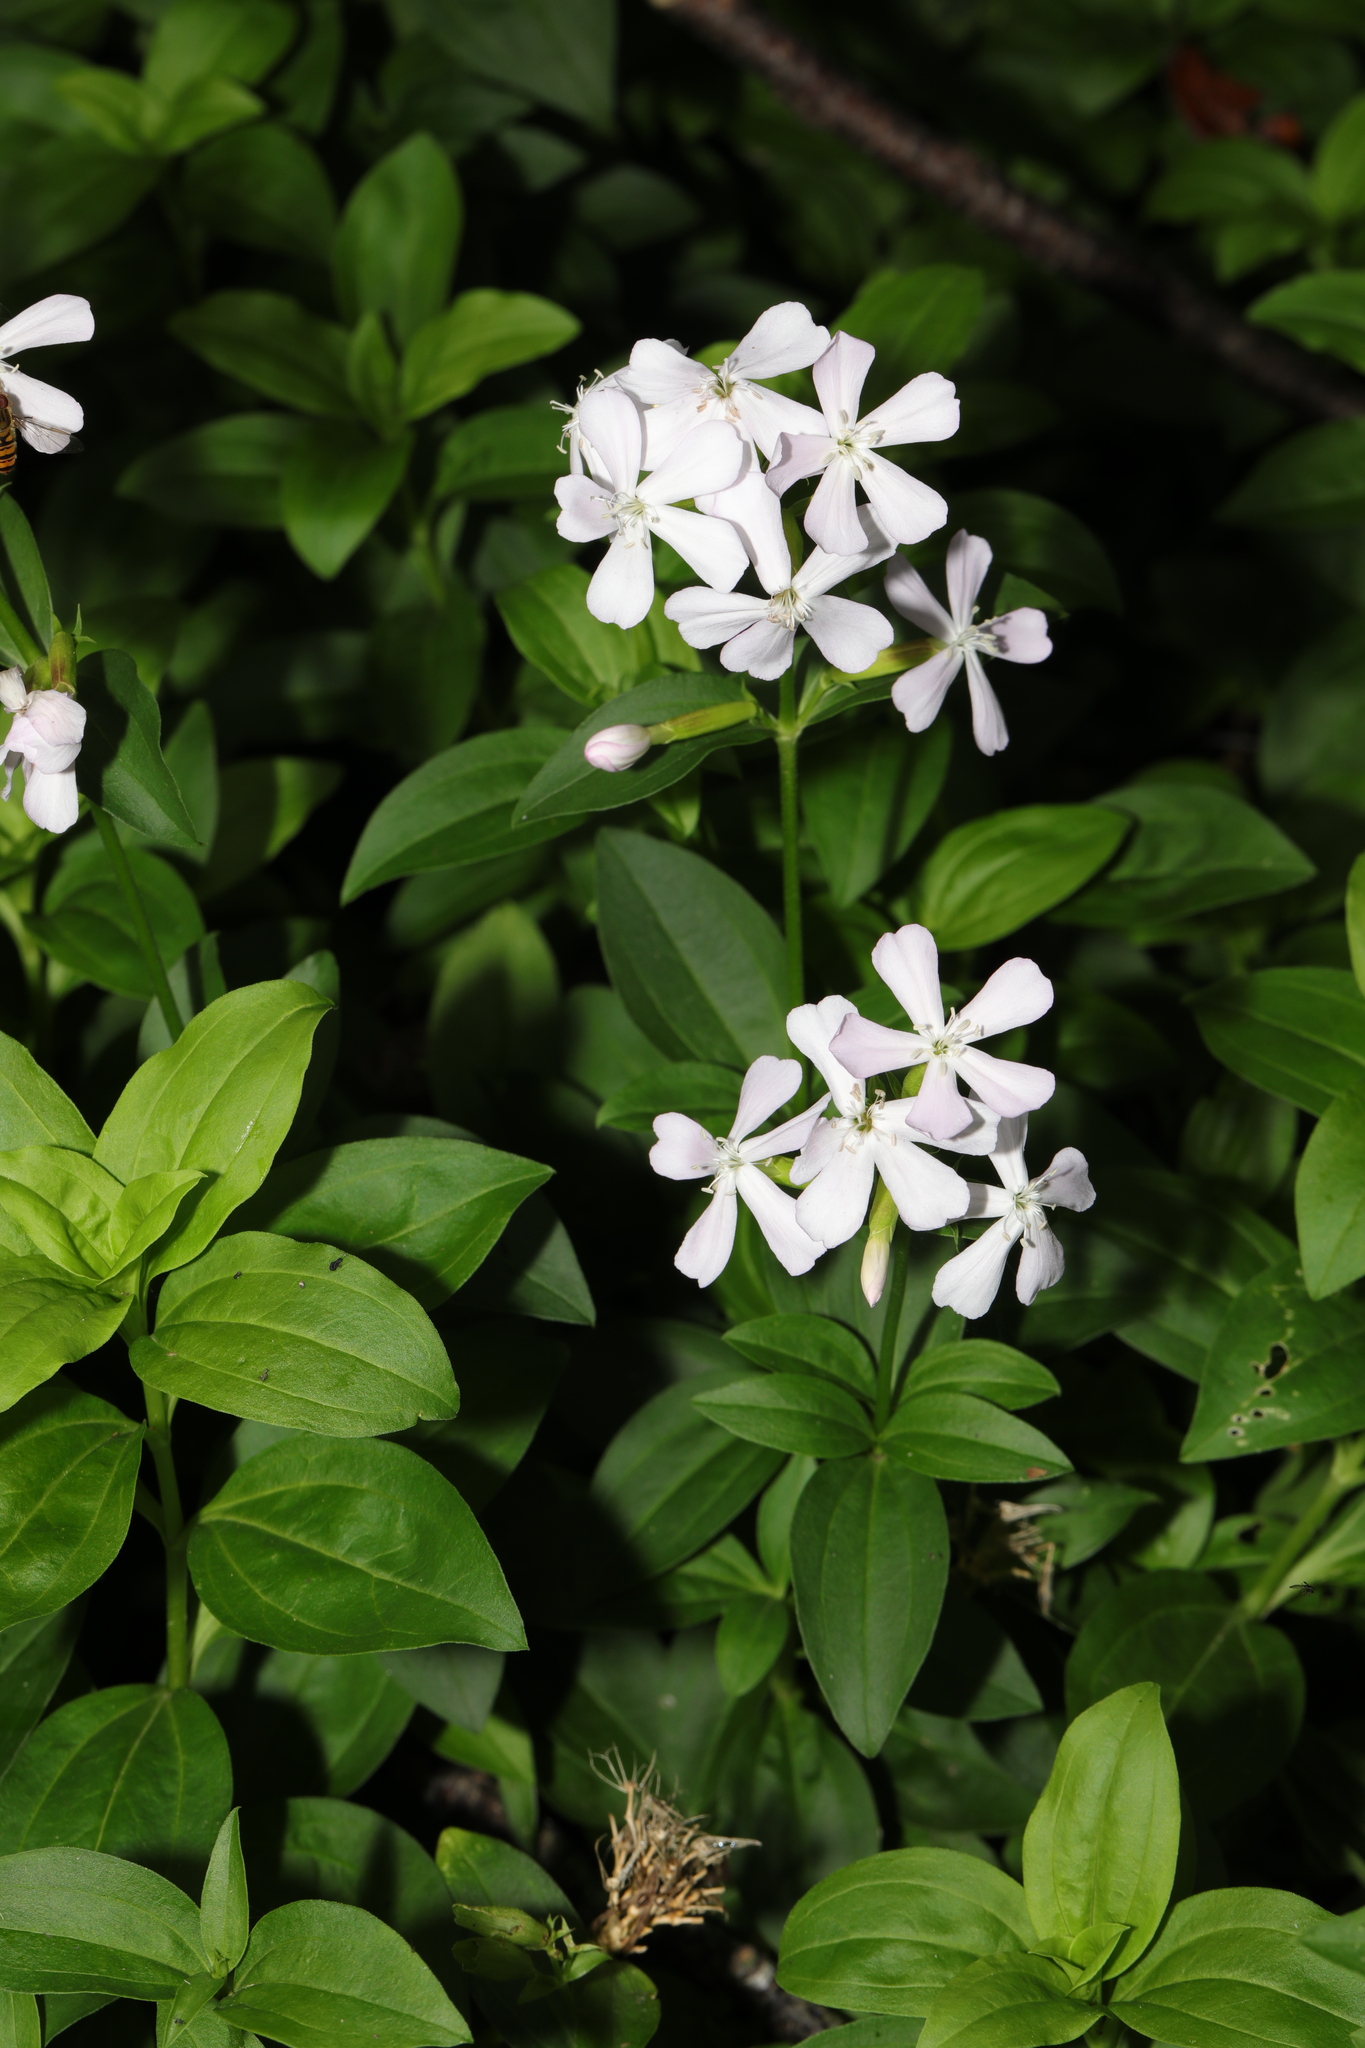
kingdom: Plantae
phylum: Tracheophyta
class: Magnoliopsida
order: Caryophyllales
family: Caryophyllaceae
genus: Saponaria
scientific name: Saponaria officinalis
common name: Soapwort
